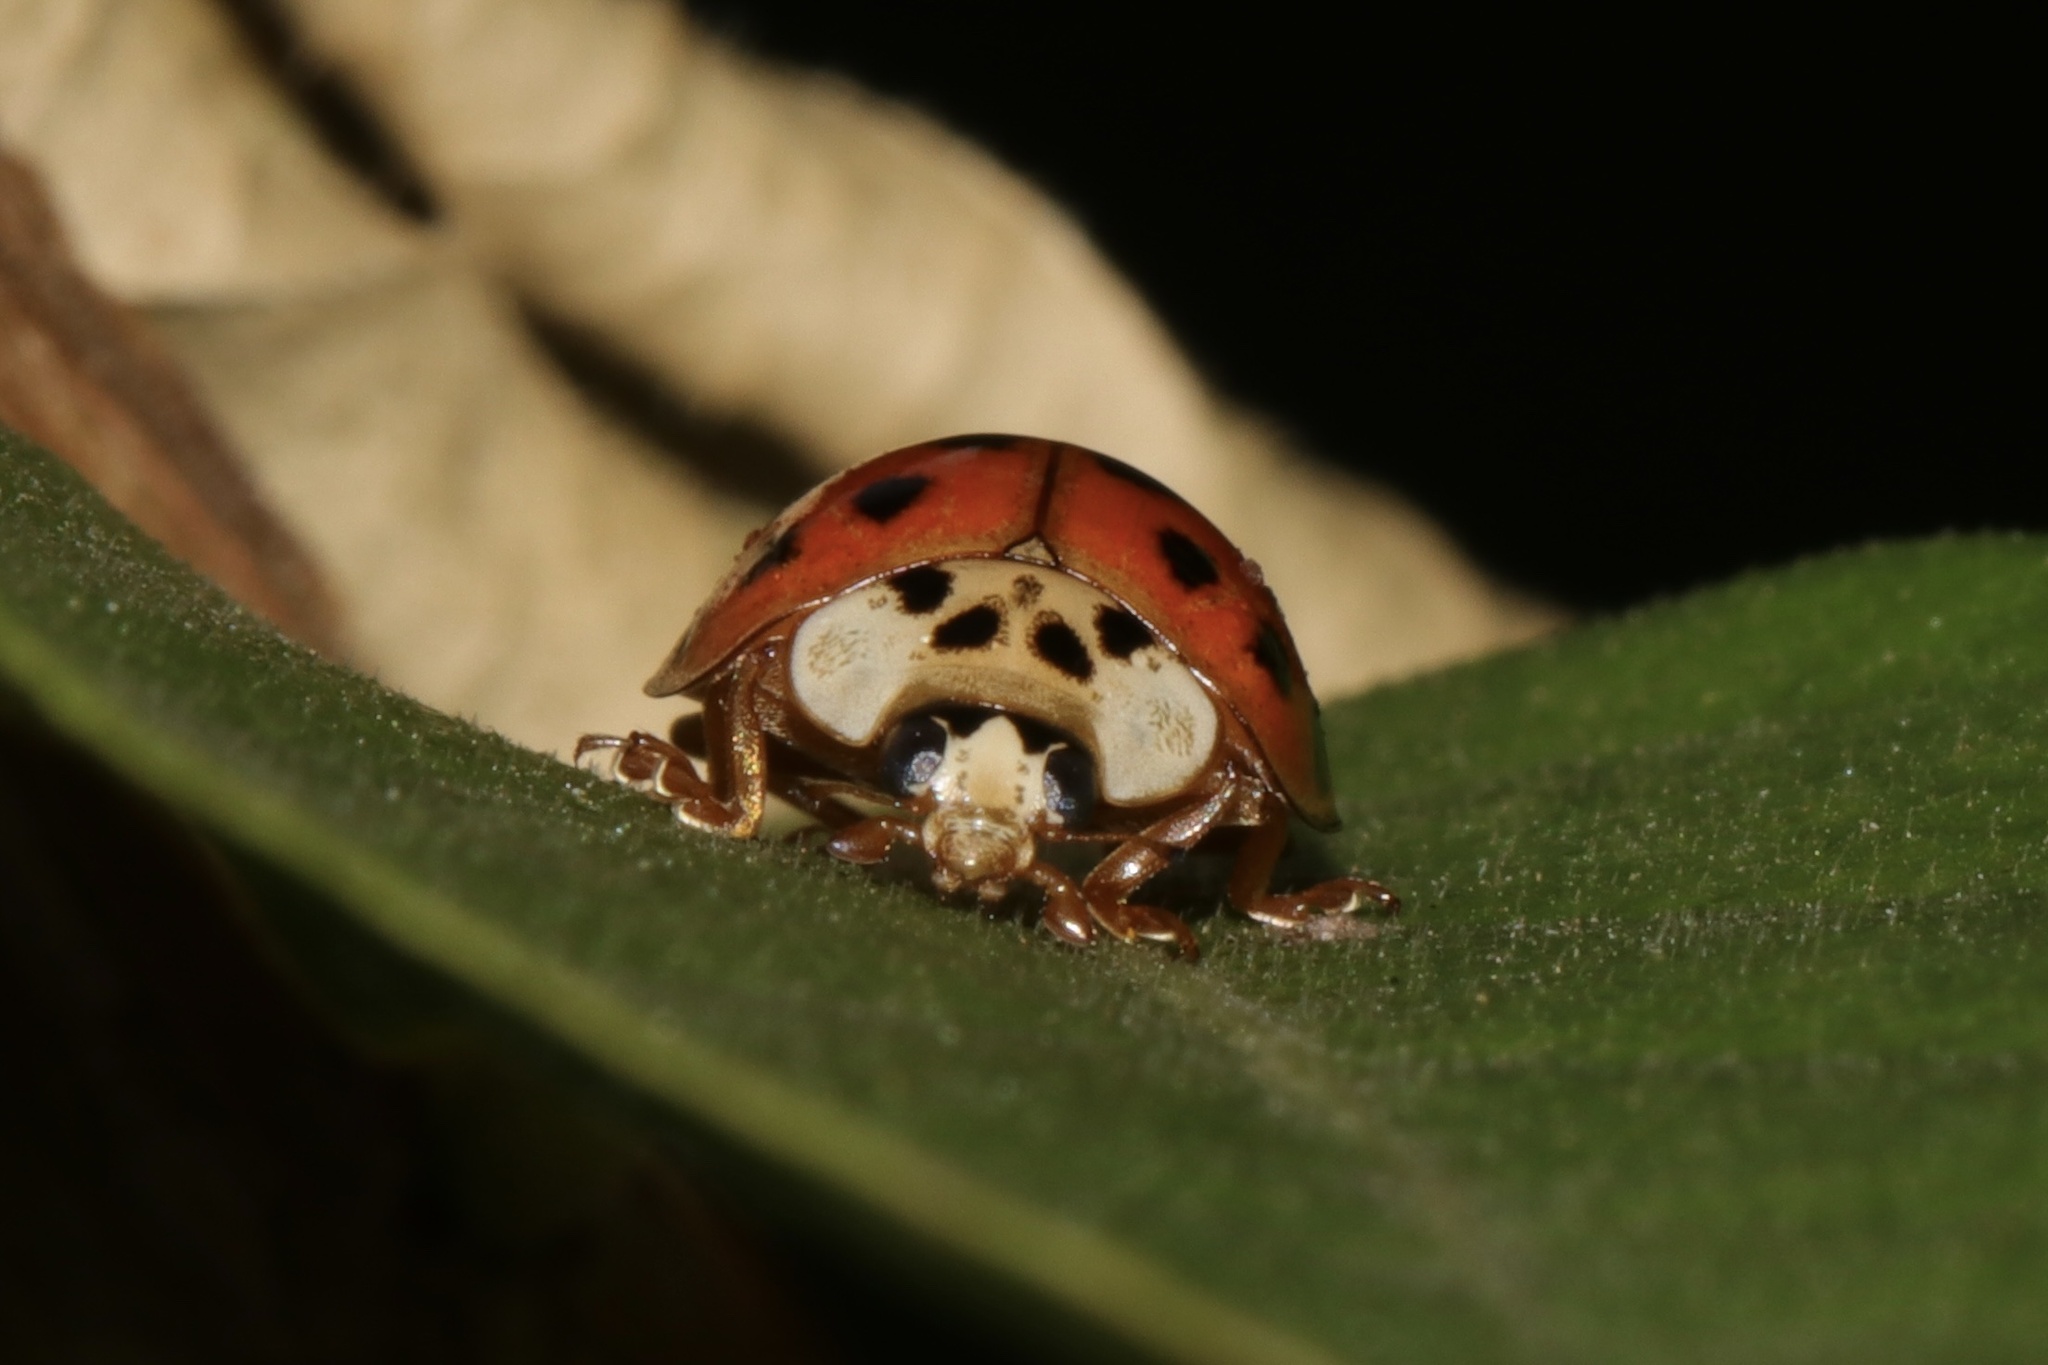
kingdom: Animalia
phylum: Arthropoda
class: Insecta
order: Coleoptera
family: Coccinellidae
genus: Harmonia
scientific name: Harmonia axyridis
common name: Harlequin ladybird
